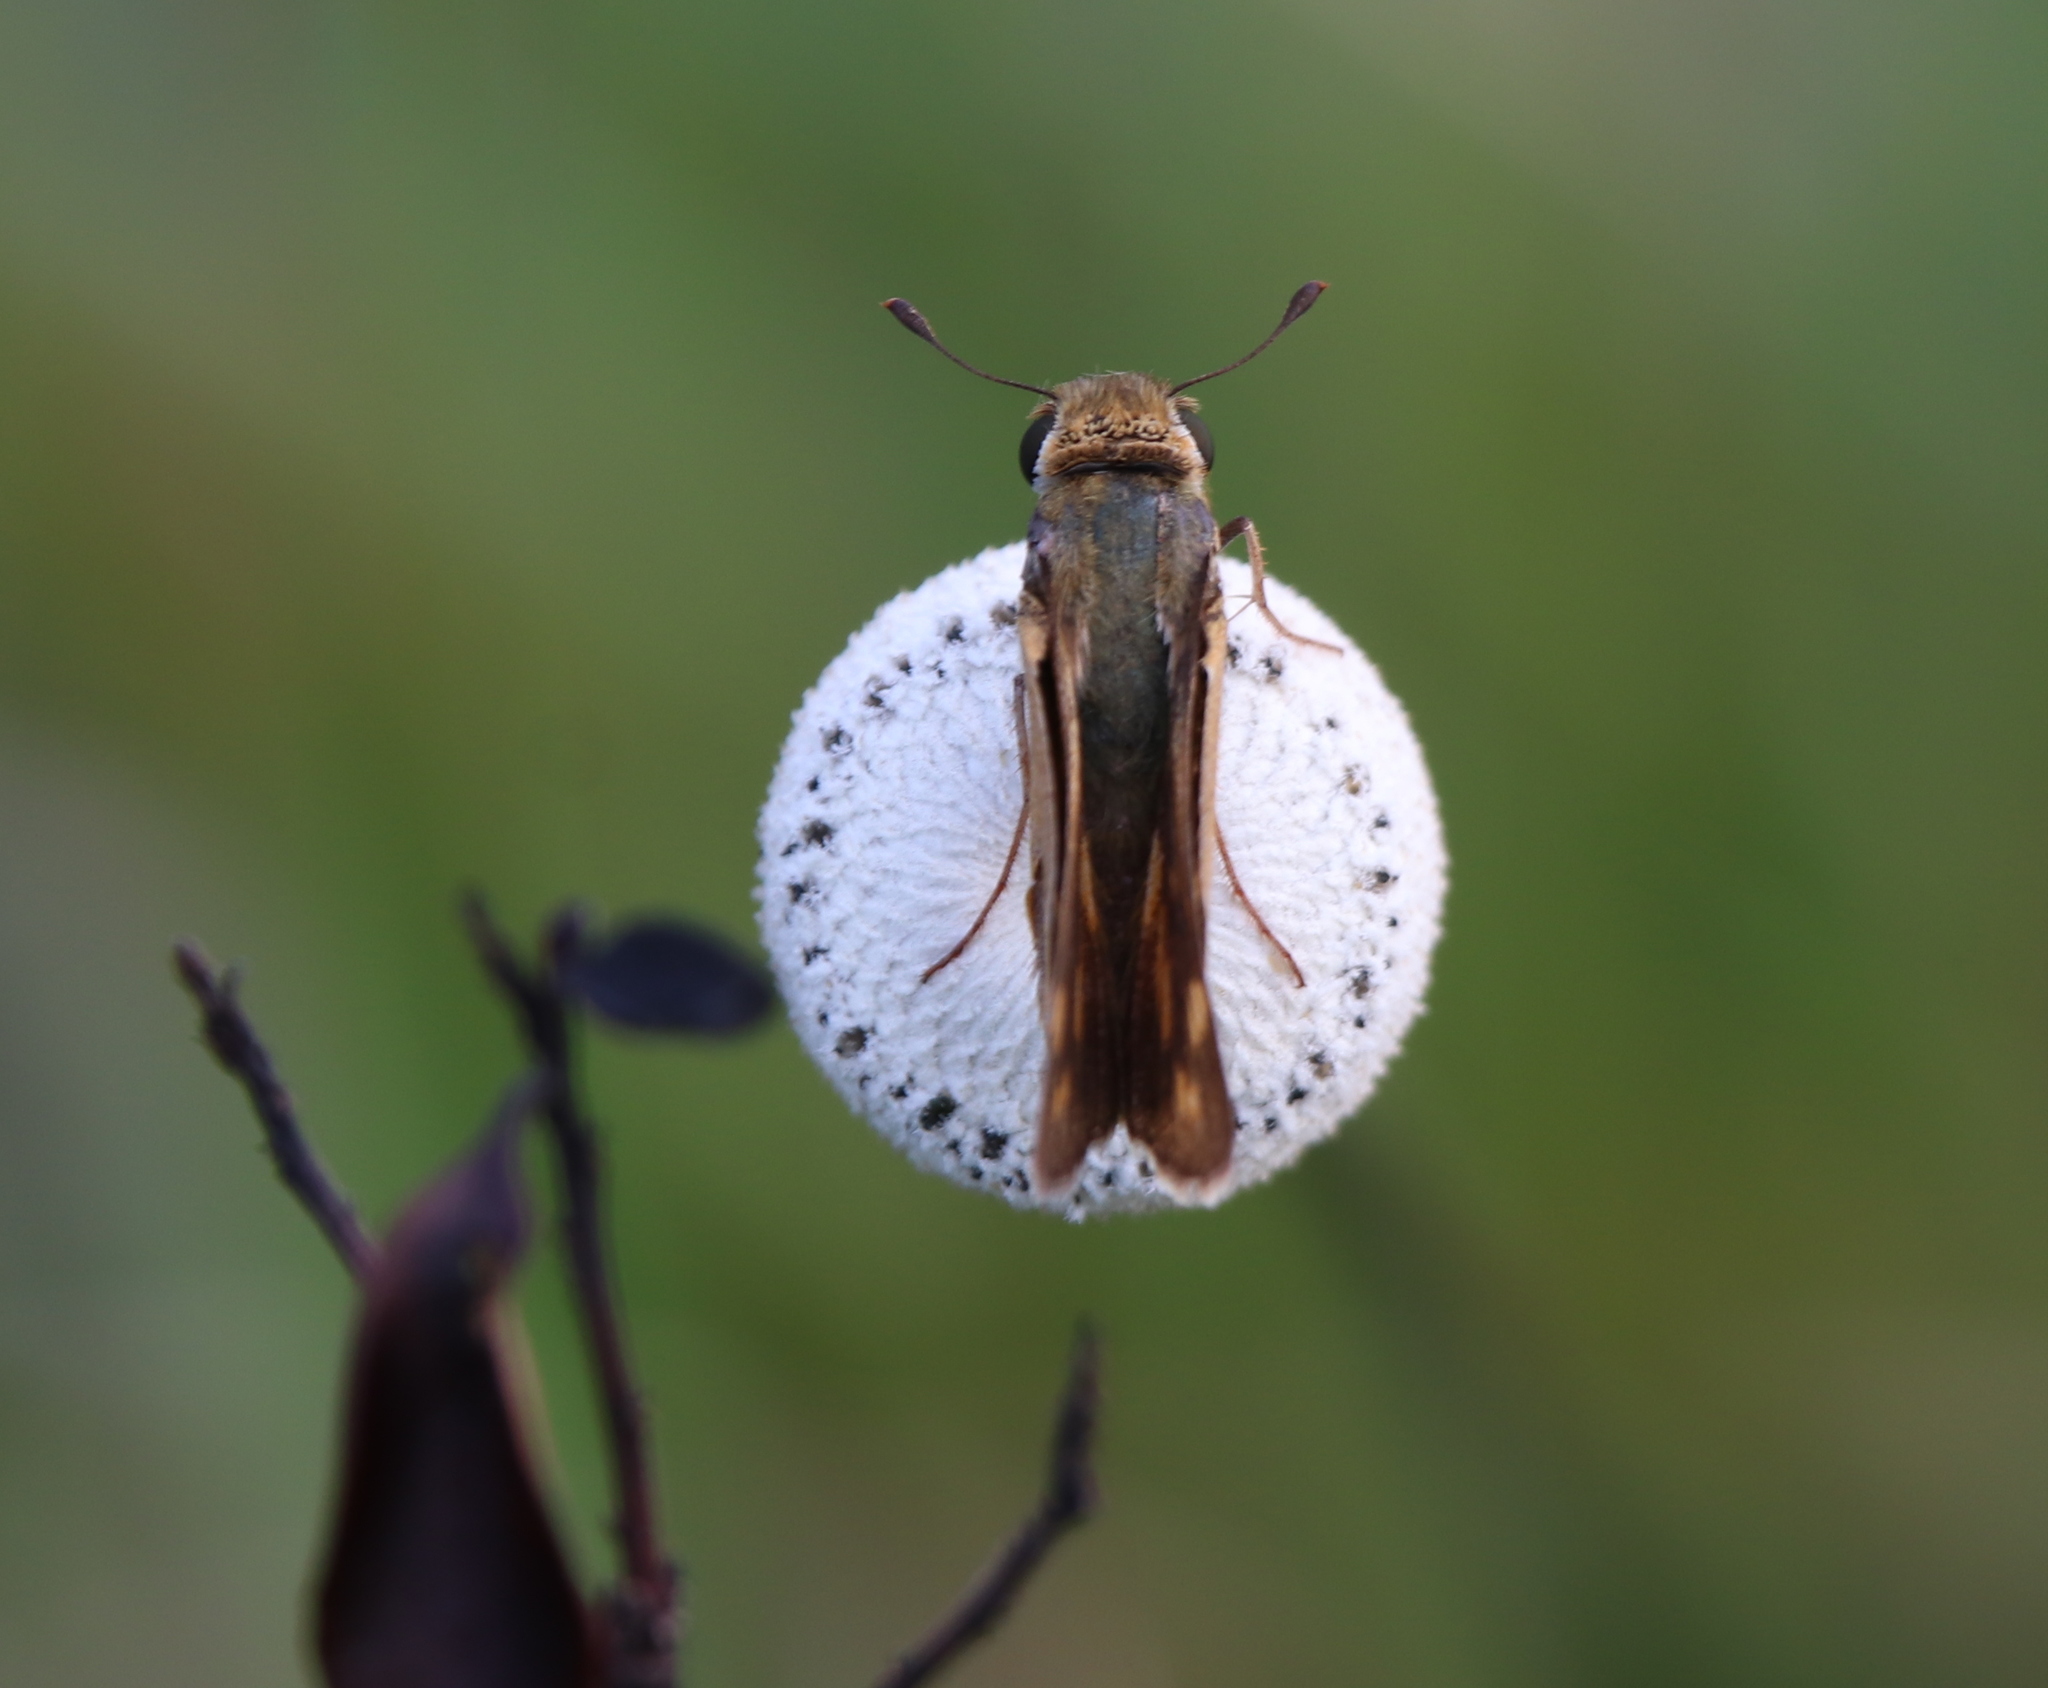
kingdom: Animalia
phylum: Arthropoda
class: Insecta
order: Lepidoptera
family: Hesperiidae
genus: Hylephila
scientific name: Hylephila phyleus
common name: Fiery skipper
